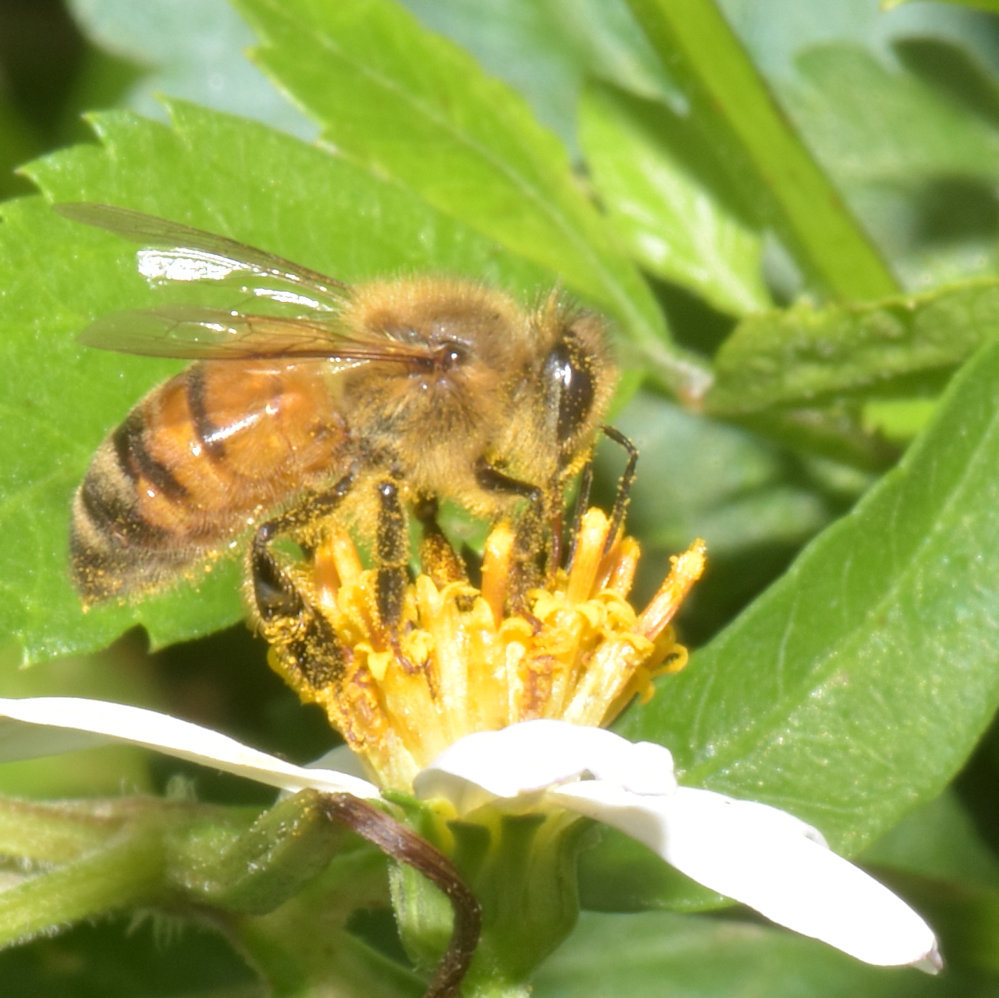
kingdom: Animalia
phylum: Arthropoda
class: Insecta
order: Hymenoptera
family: Apidae
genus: Apis
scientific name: Apis mellifera
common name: Honey bee
